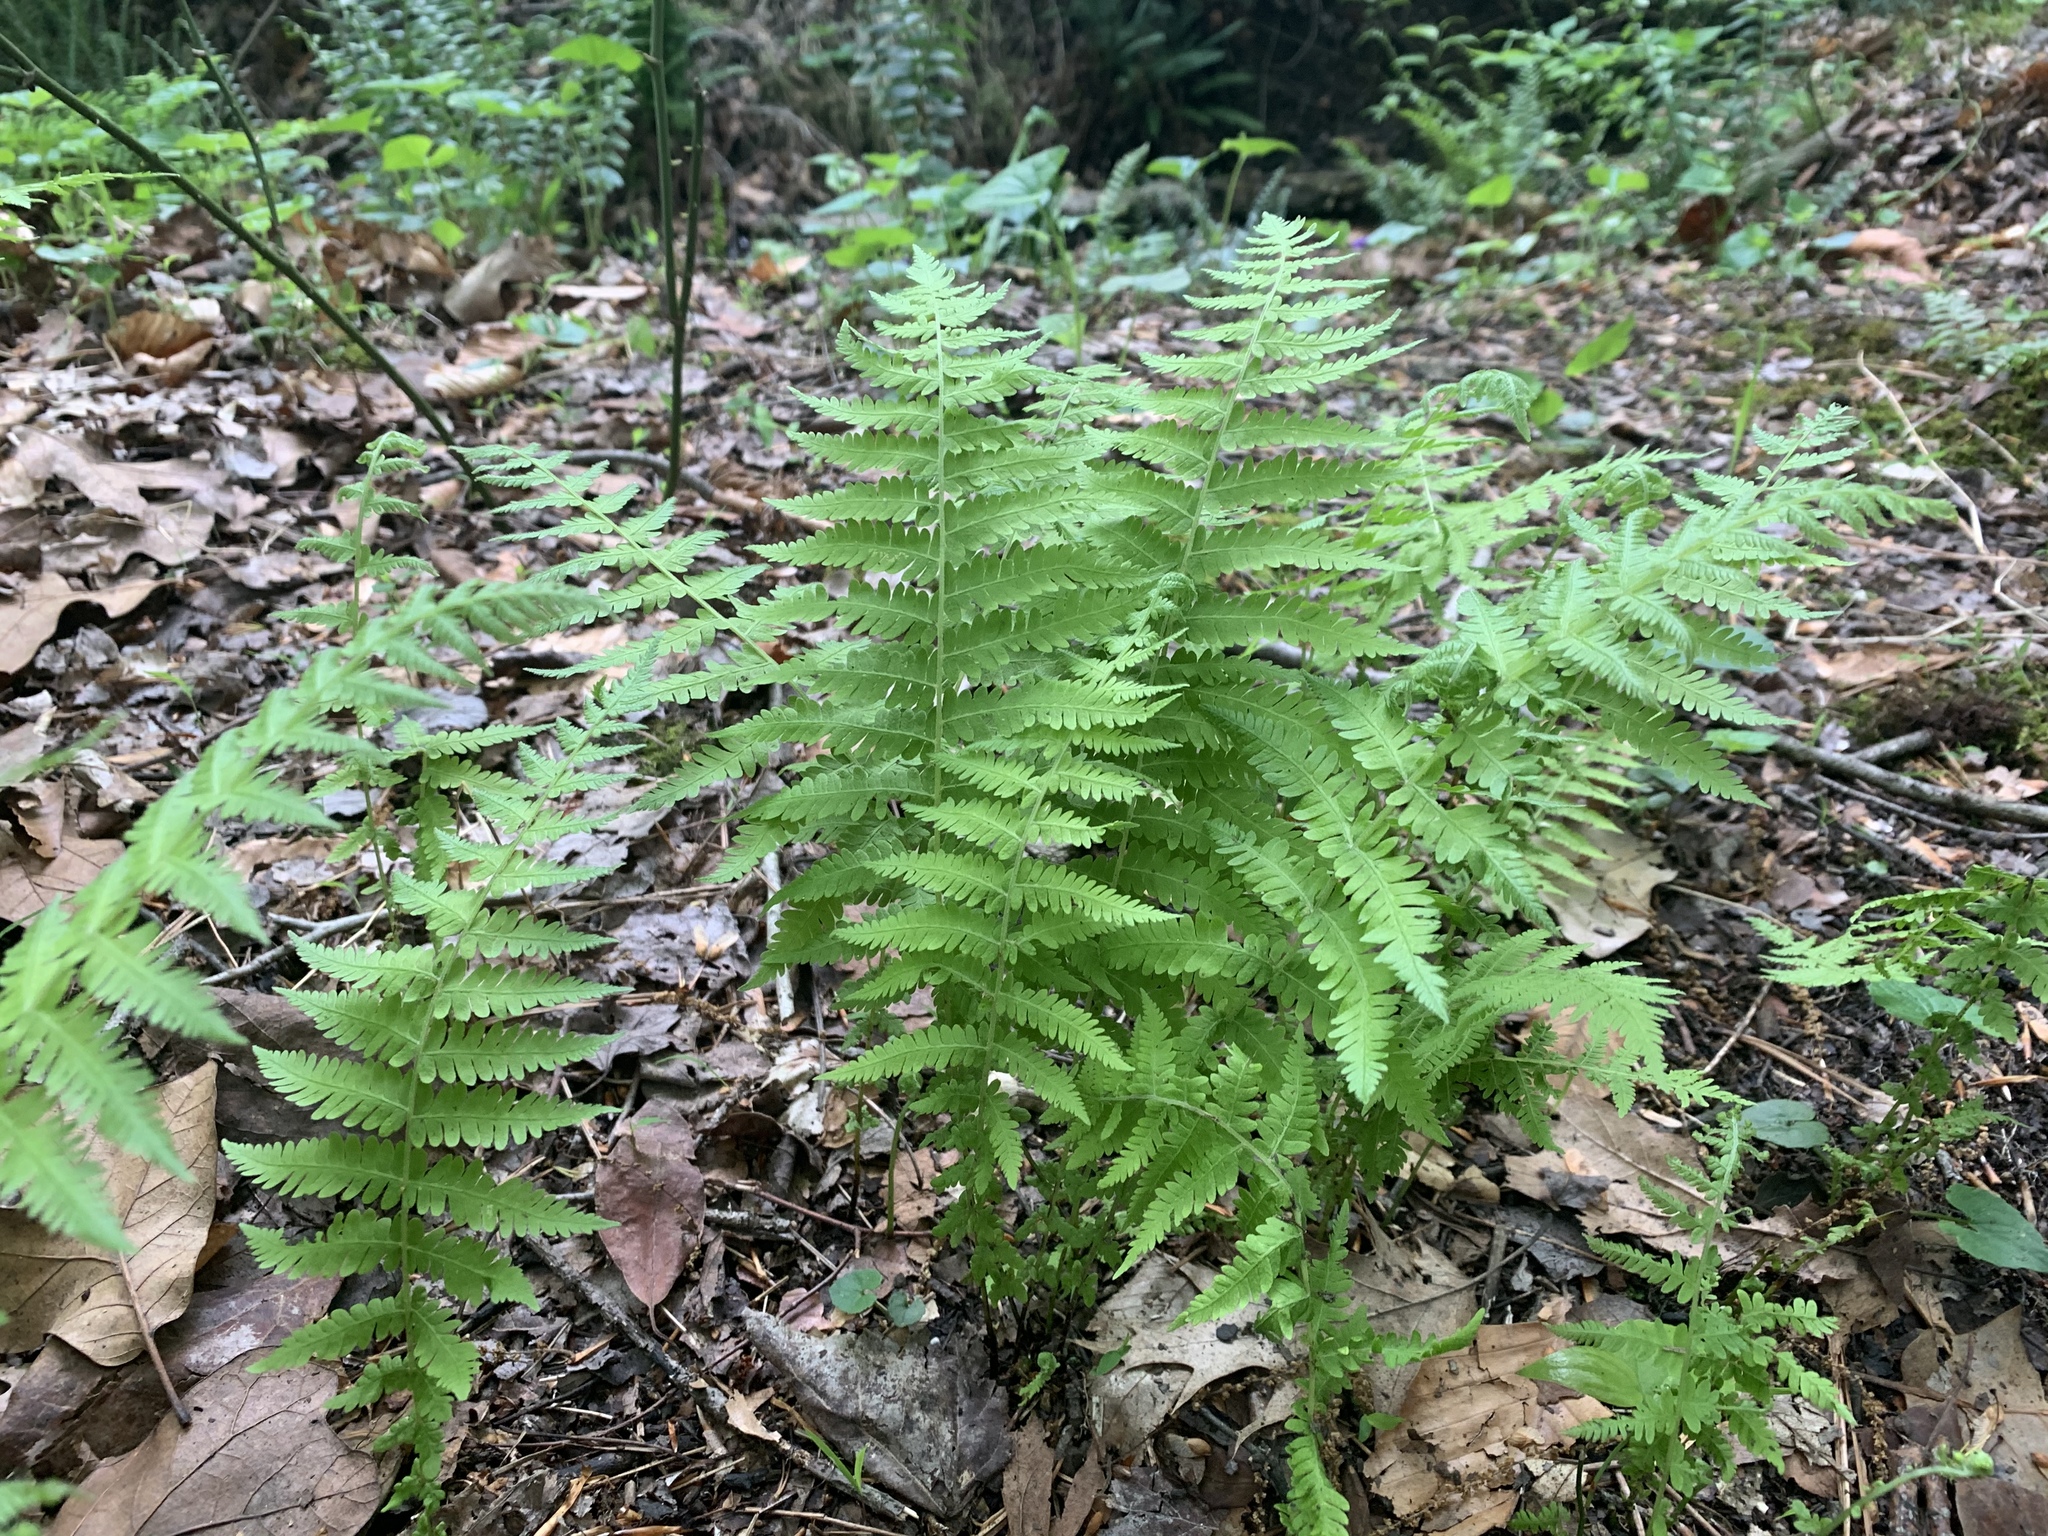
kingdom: Plantae
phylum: Tracheophyta
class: Polypodiopsida
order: Polypodiales
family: Thelypteridaceae
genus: Amauropelta
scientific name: Amauropelta noveboracensis
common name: New york fern
